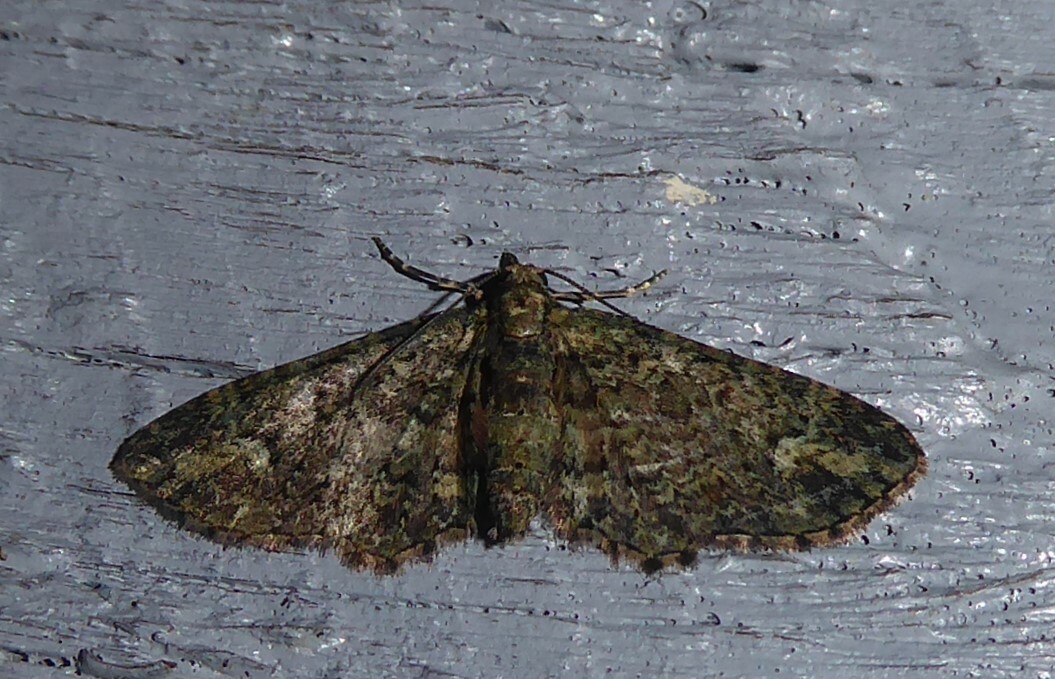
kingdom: Animalia
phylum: Arthropoda
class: Insecta
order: Lepidoptera
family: Geometridae
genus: Pasiphilodes
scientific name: Pasiphilodes testulata
